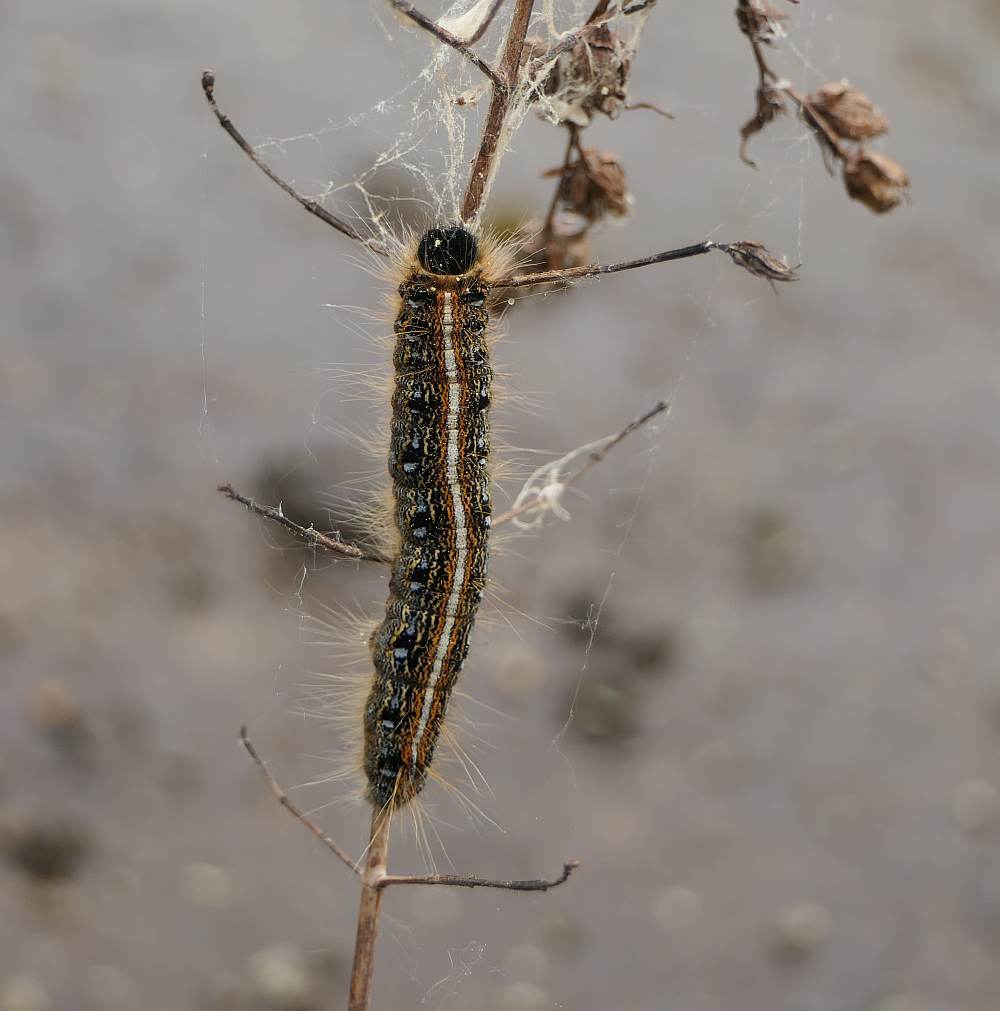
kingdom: Animalia
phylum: Arthropoda
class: Insecta
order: Lepidoptera
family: Lasiocampidae
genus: Malacosoma
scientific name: Malacosoma americana
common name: Eastern tent caterpillar moth
